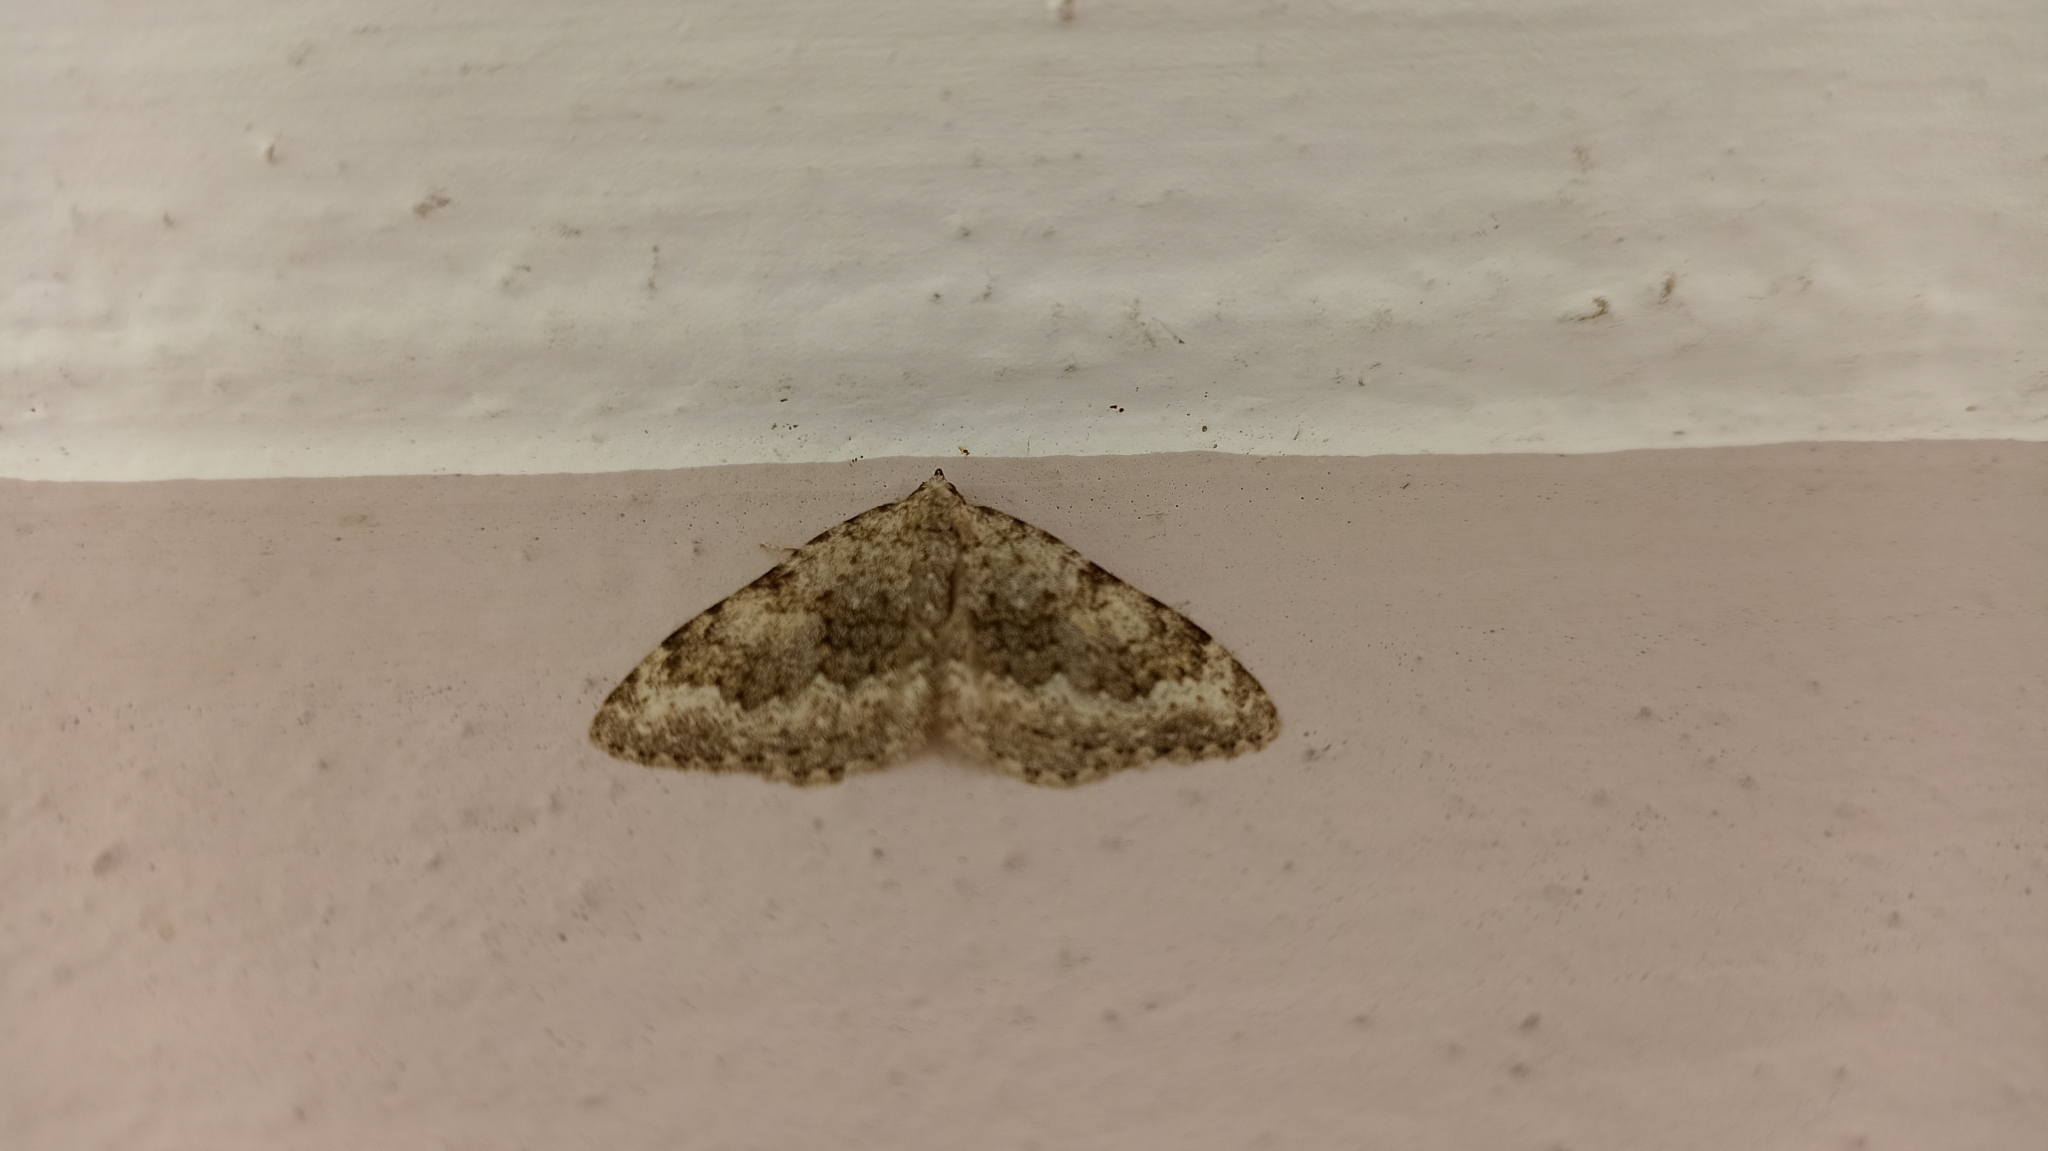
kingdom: Animalia
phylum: Arthropoda
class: Insecta
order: Lepidoptera
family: Geometridae
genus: Nebula
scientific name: Nebula salicata
